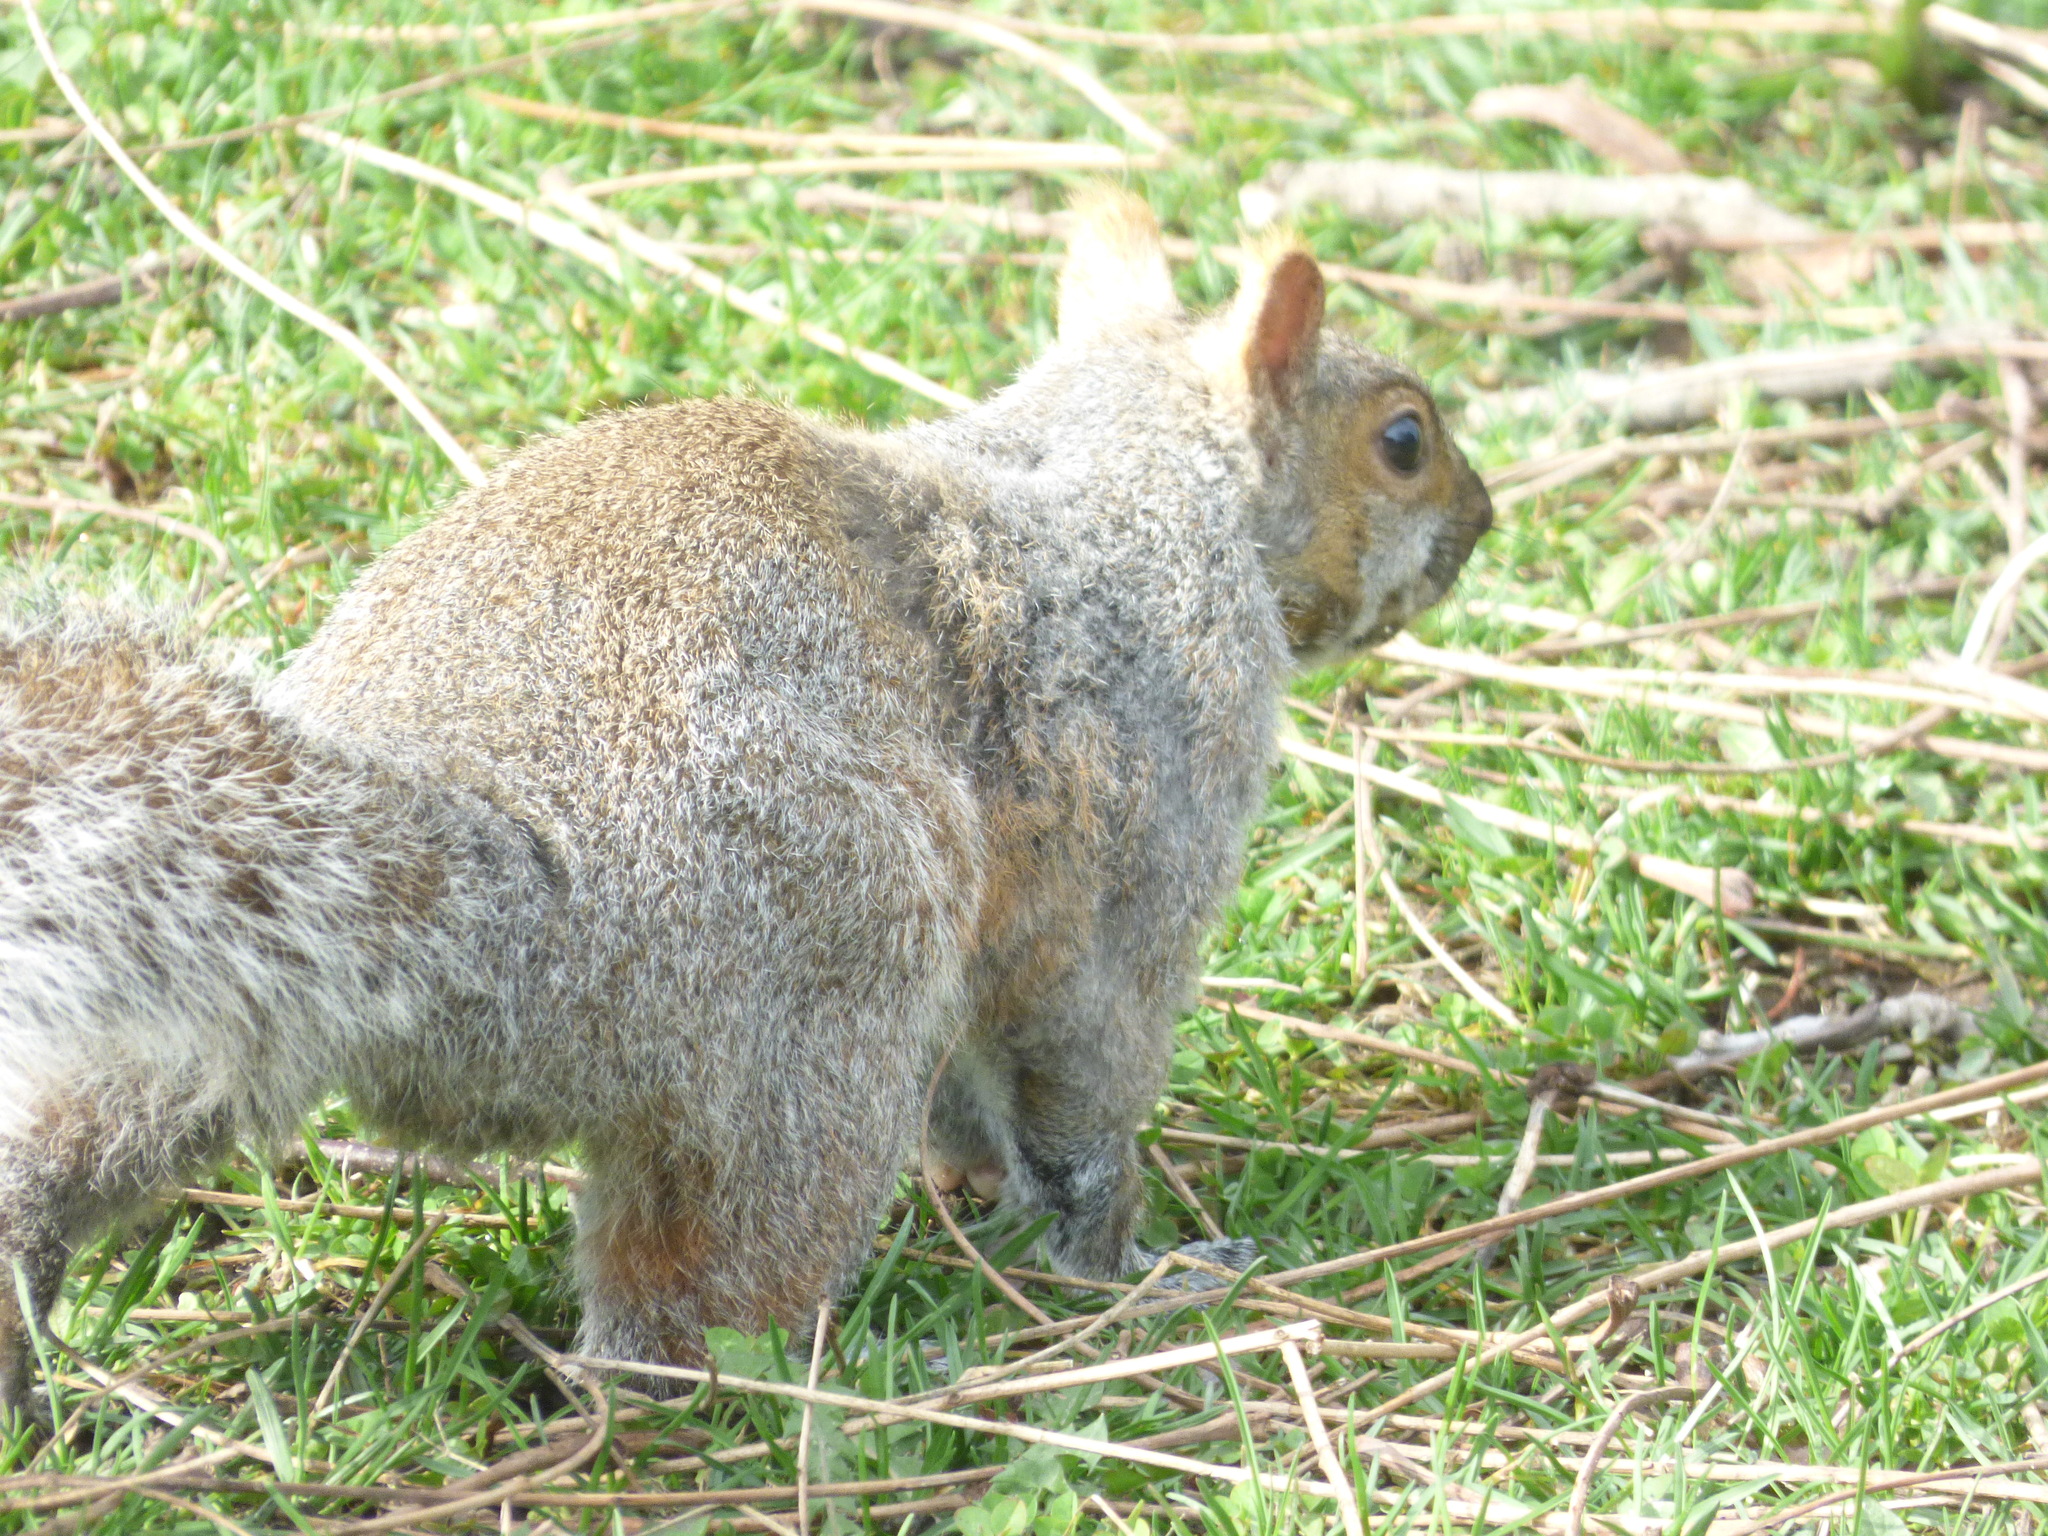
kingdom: Animalia
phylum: Chordata
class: Mammalia
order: Rodentia
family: Sciuridae
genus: Sciurus
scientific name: Sciurus carolinensis
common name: Eastern gray squirrel
